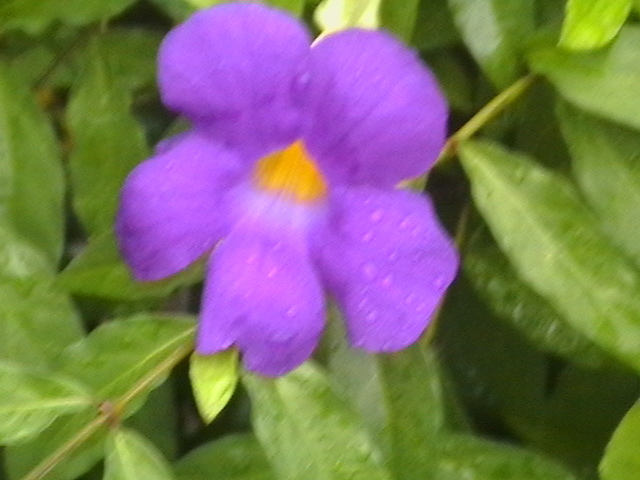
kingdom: Plantae
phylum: Tracheophyta
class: Magnoliopsida
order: Lamiales
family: Acanthaceae
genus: Thunbergia
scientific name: Thunbergia erecta
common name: Bush clockvine
